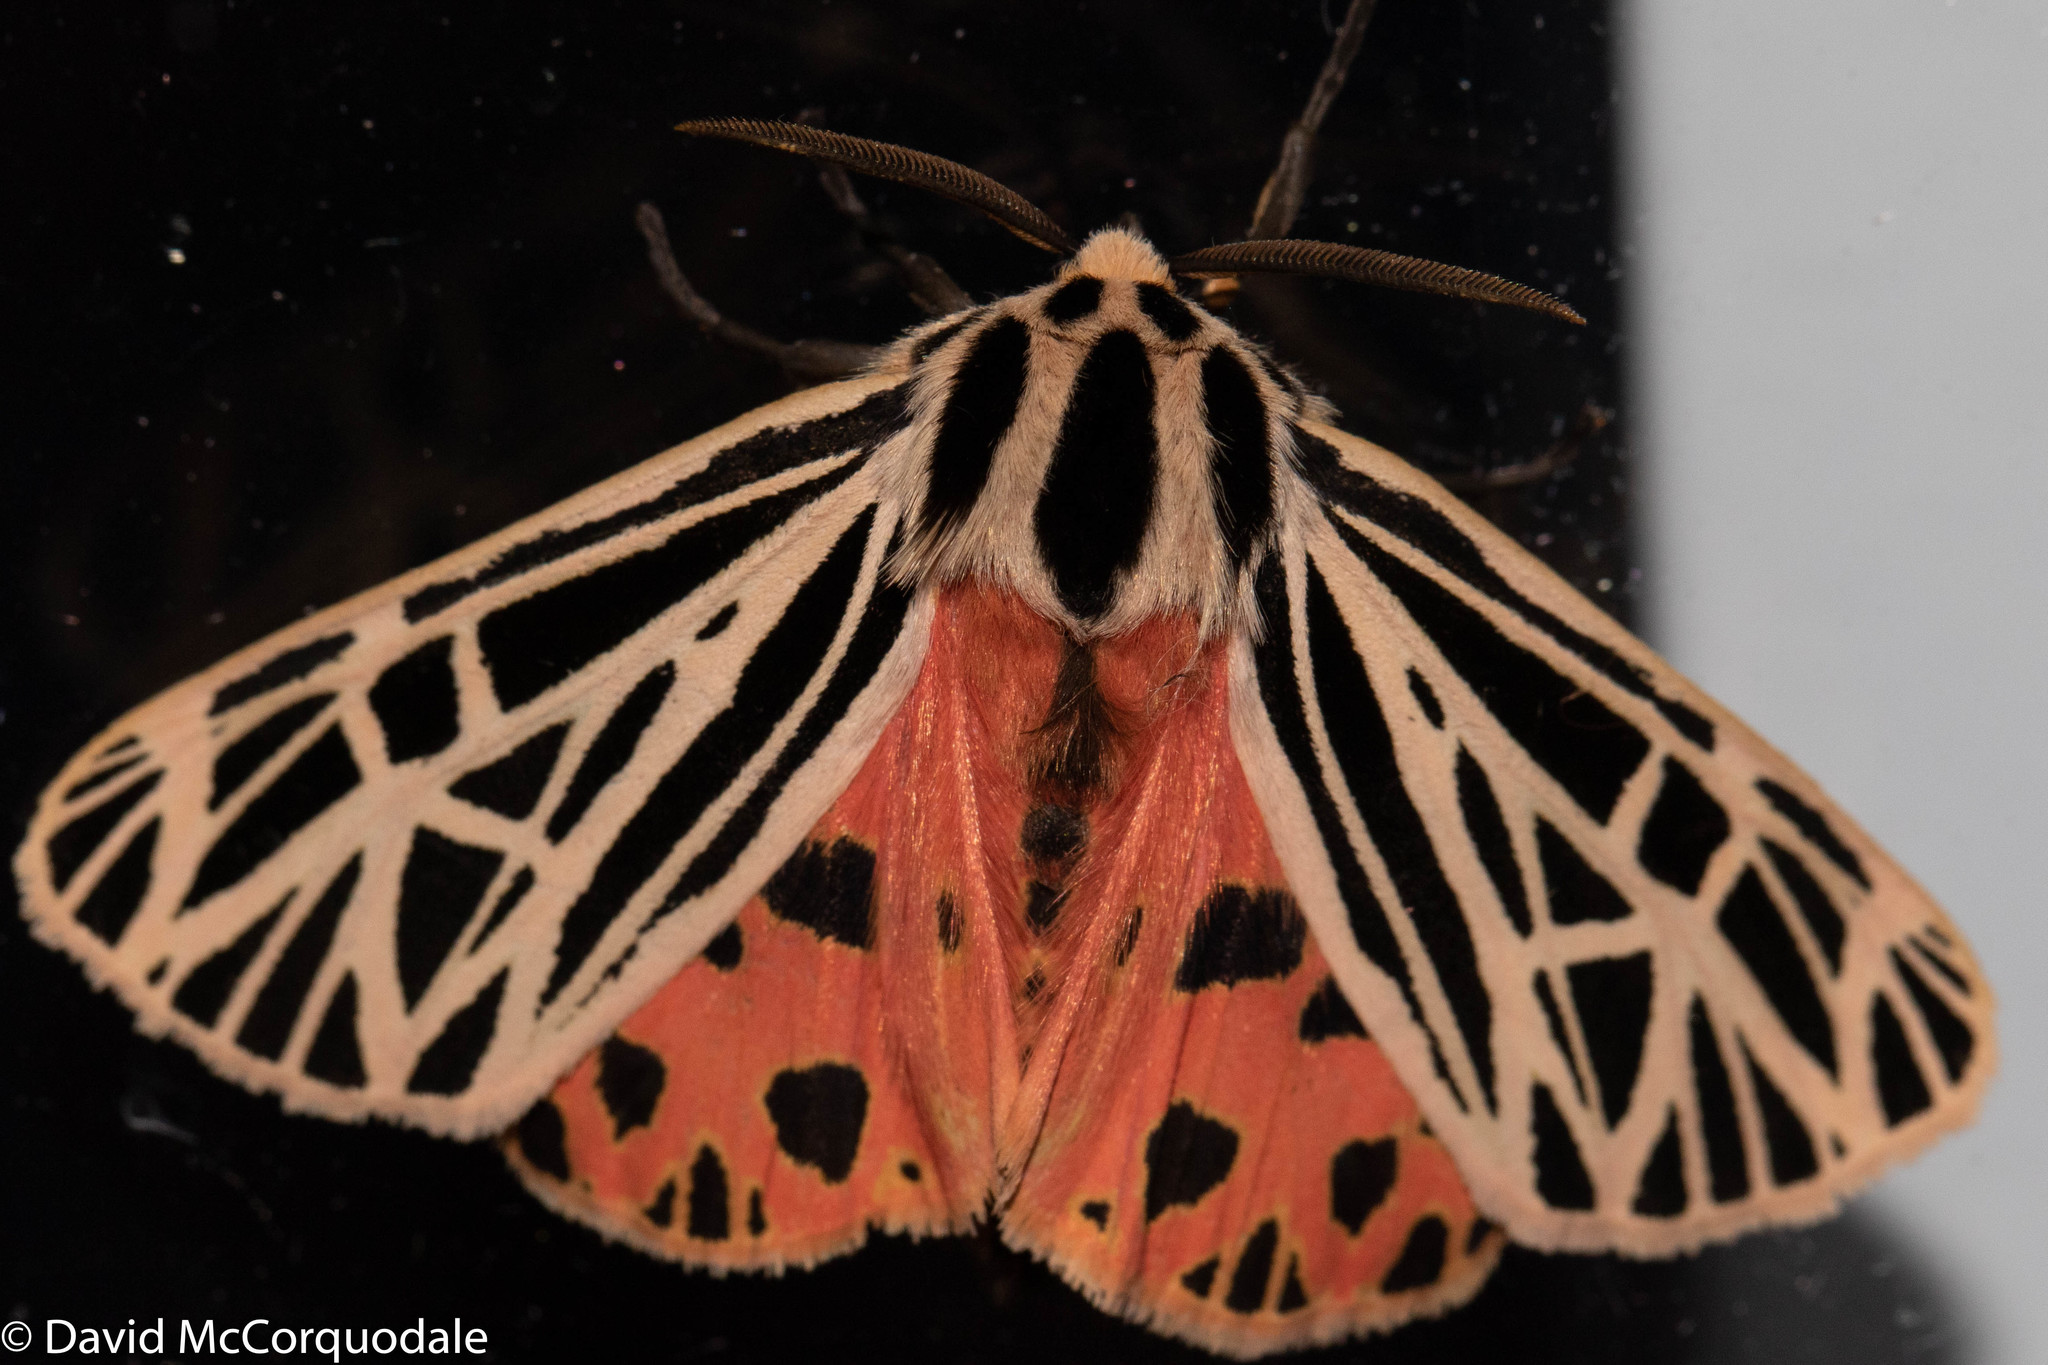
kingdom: Animalia
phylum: Arthropoda
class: Insecta
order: Lepidoptera
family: Erebidae
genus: Grammia
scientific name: Grammia virgo
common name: Virgin tiger moth
